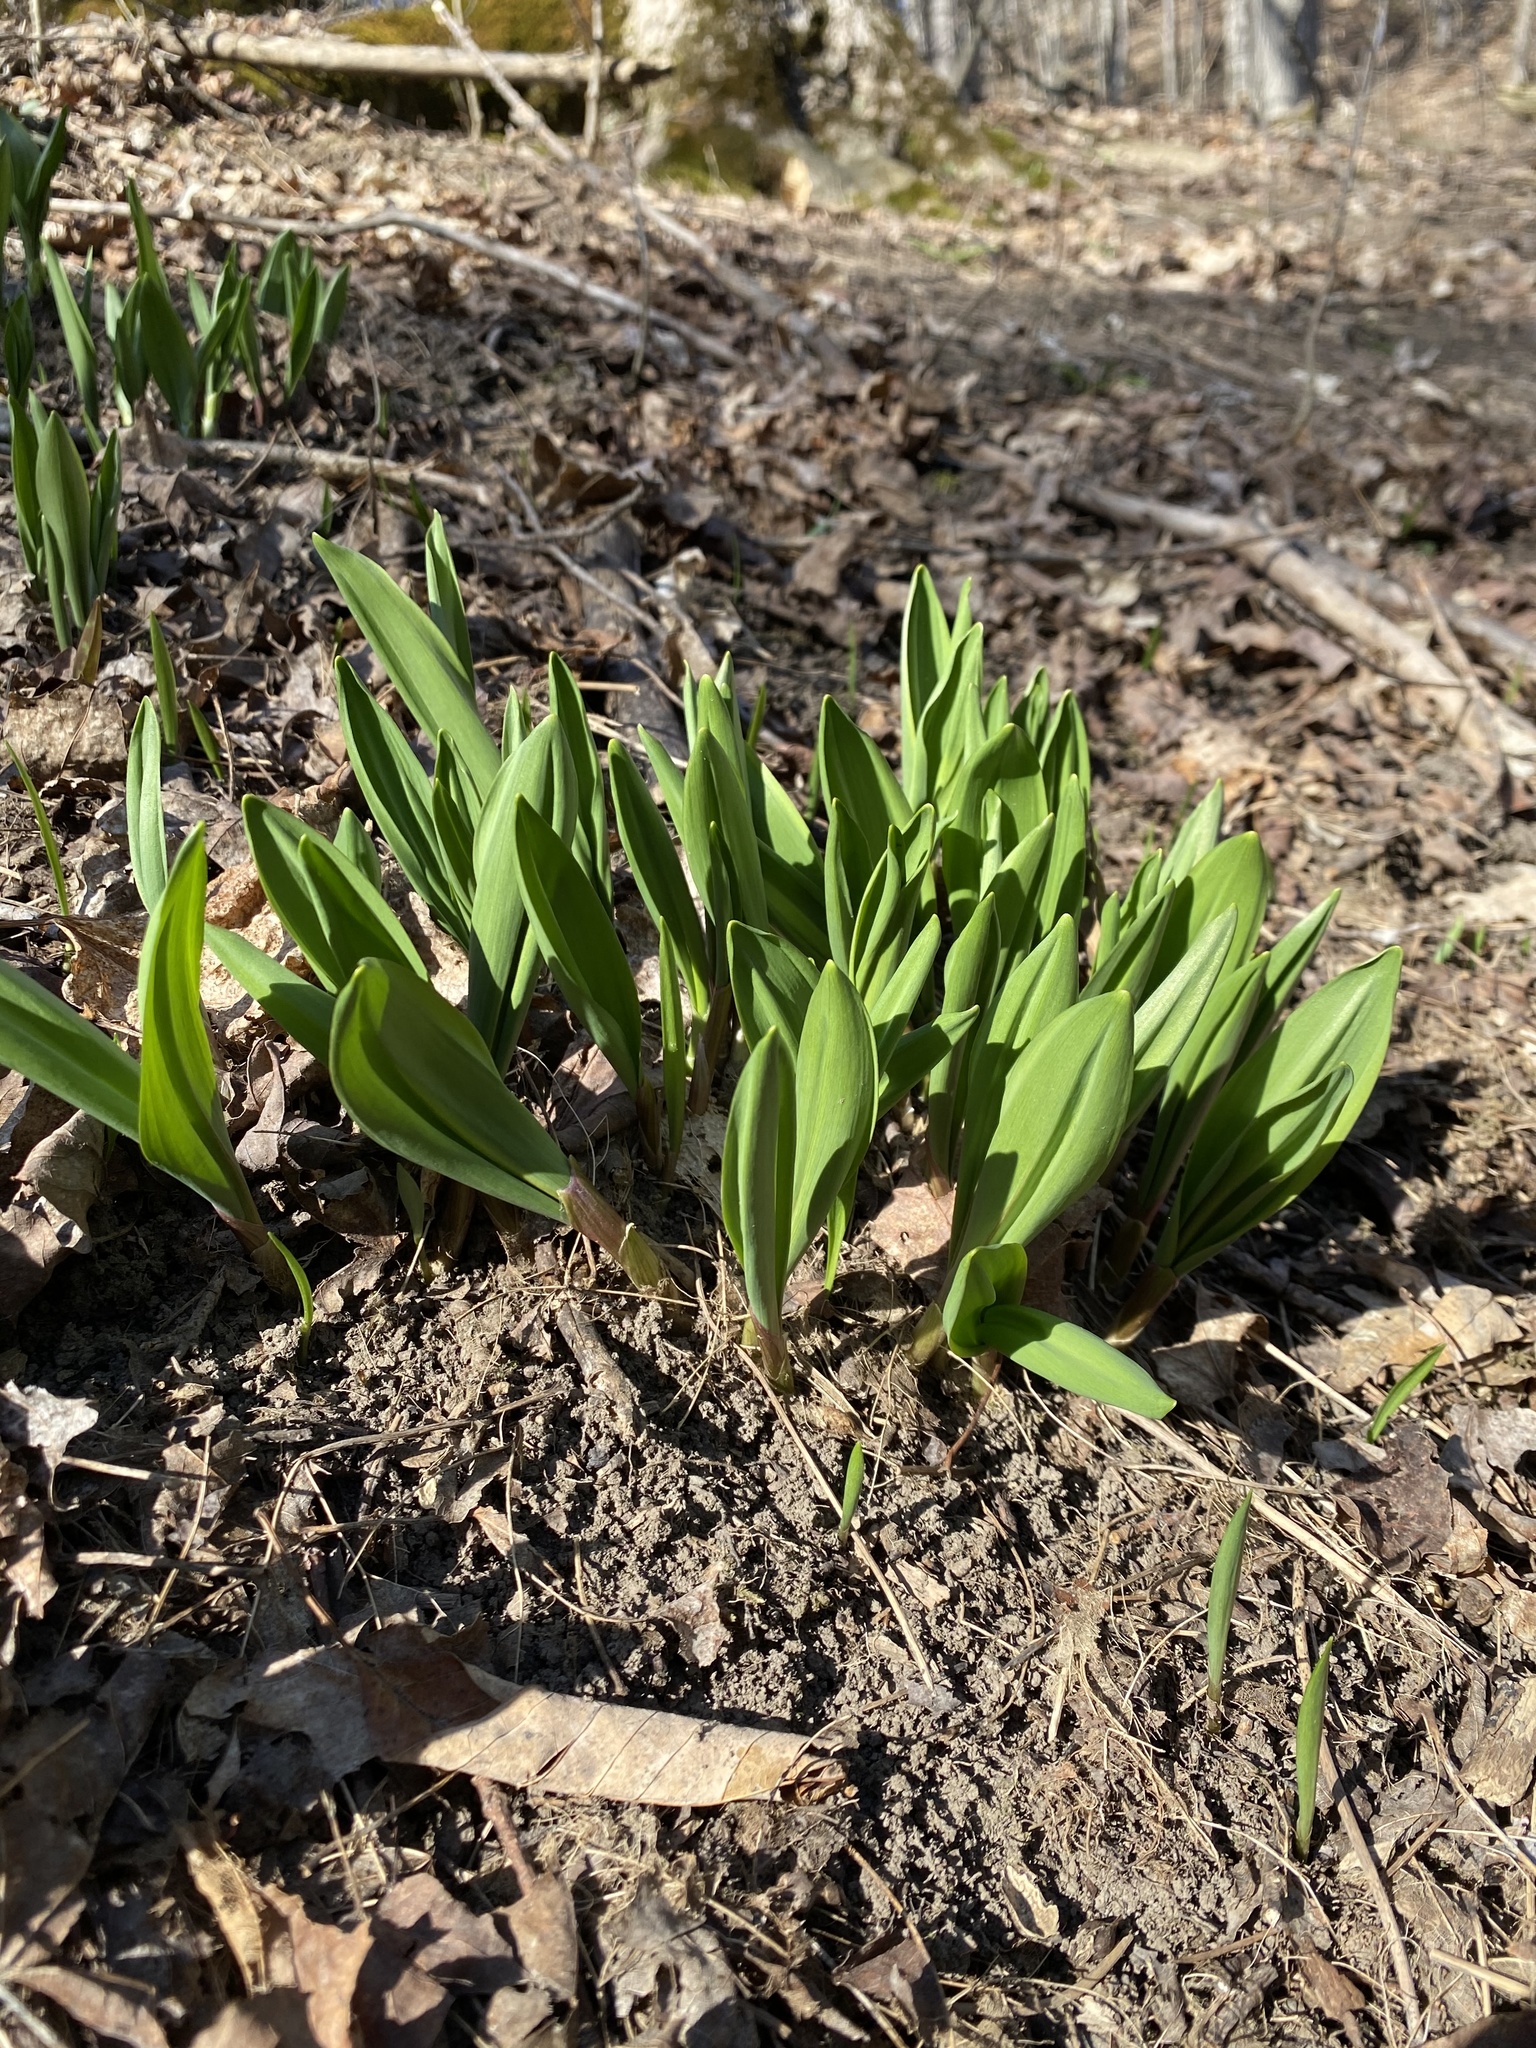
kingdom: Plantae
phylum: Tracheophyta
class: Liliopsida
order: Asparagales
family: Amaryllidaceae
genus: Allium
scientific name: Allium tricoccum
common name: Ramp
